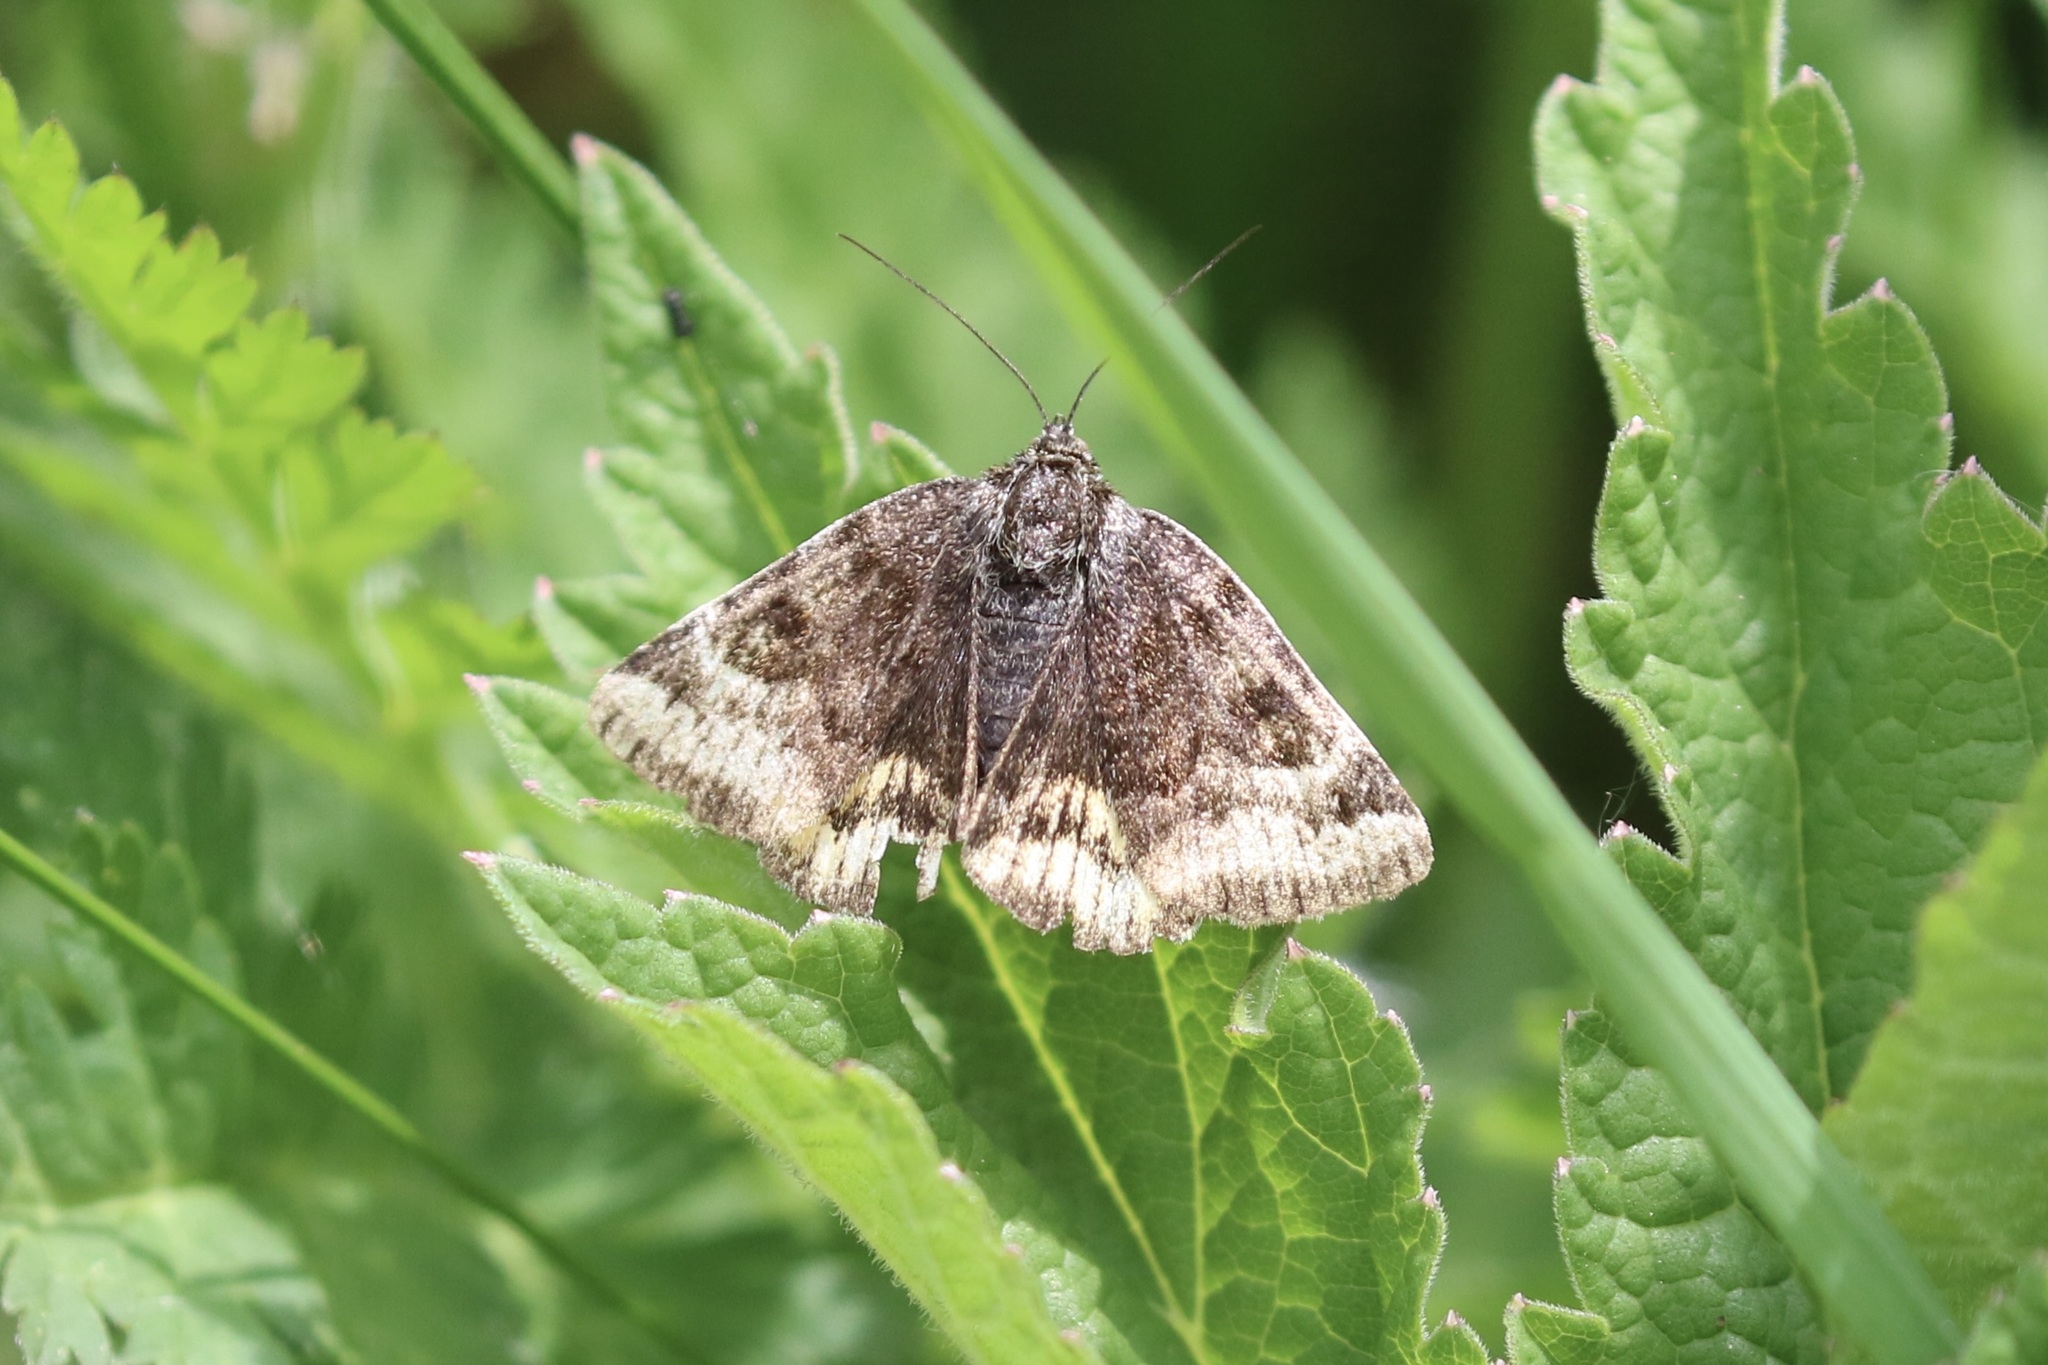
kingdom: Animalia
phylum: Arthropoda
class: Insecta
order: Lepidoptera
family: Erebidae
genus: Euclidia
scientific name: Euclidia glyphica
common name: Burnet companion
